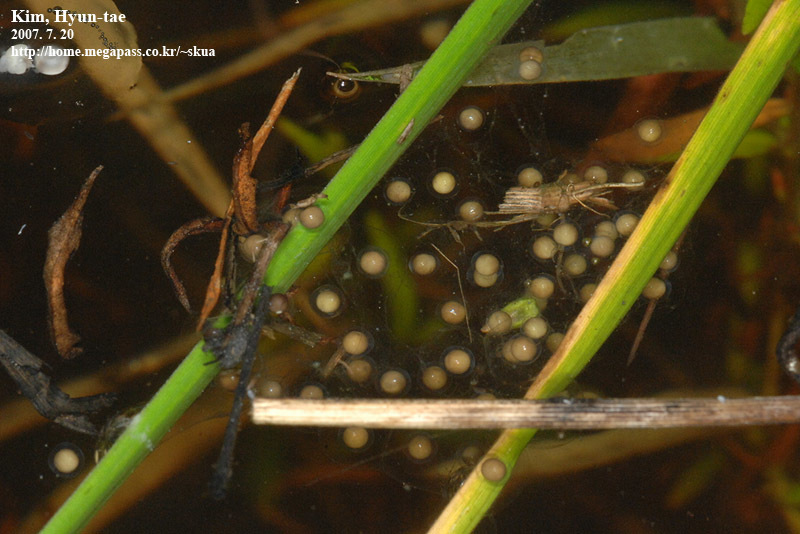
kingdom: Animalia
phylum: Chordata
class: Amphibia
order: Anura
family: Ranidae
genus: Pelophylax
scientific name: Pelophylax chosenicus
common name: Gold-spotted pond frog
